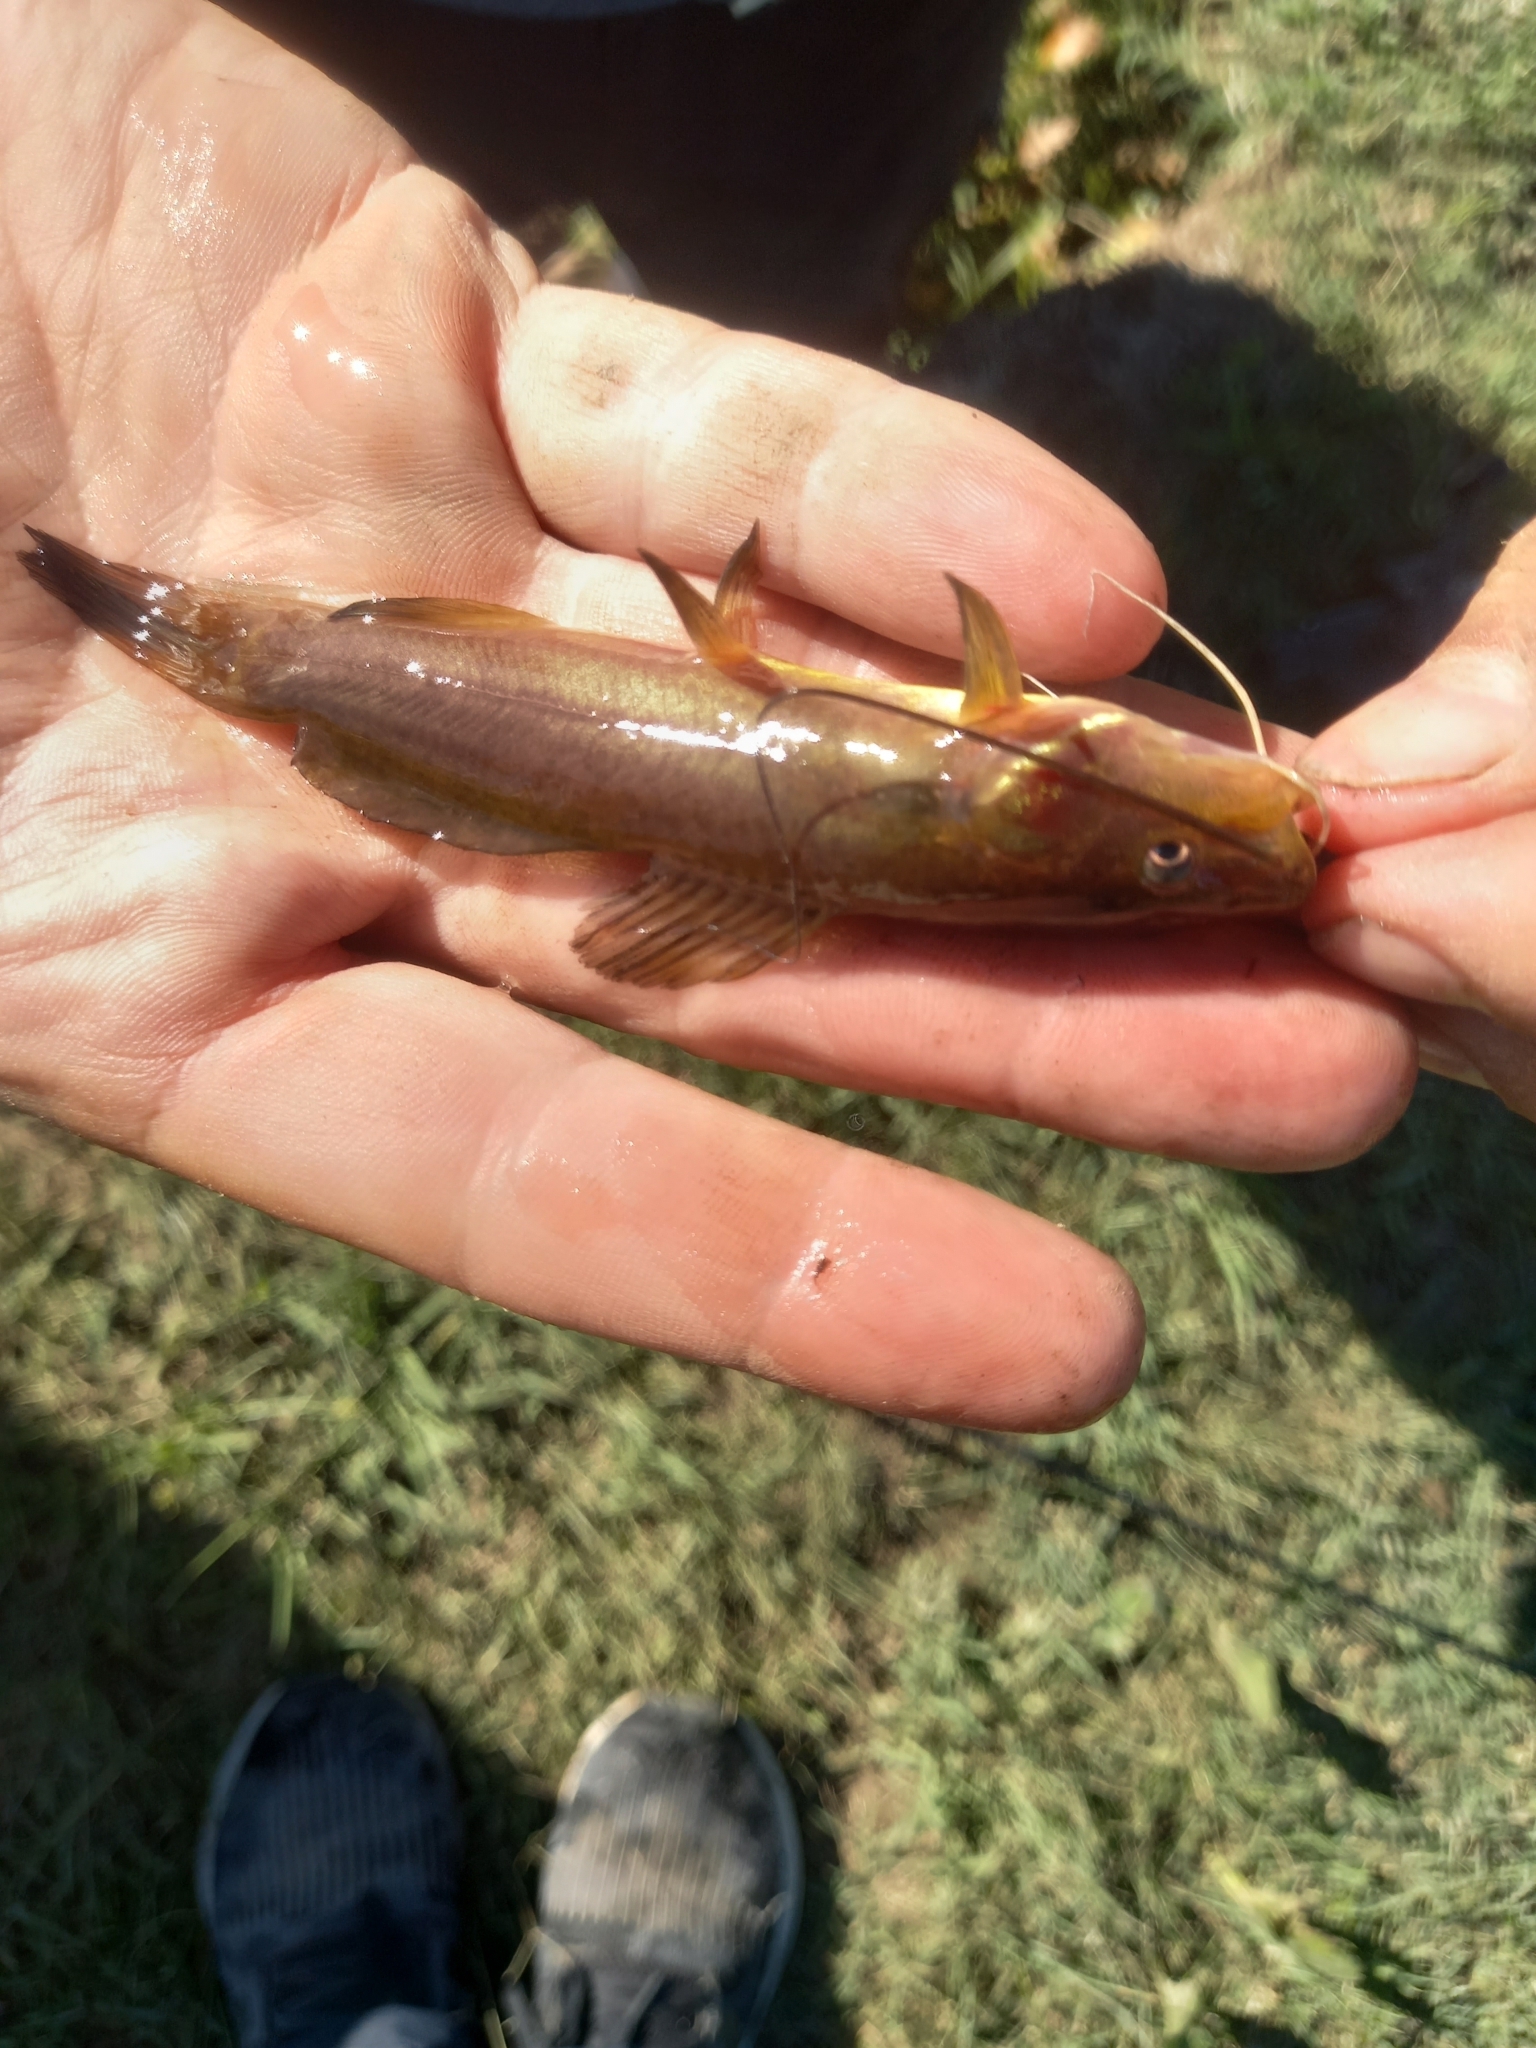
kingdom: Animalia
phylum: Chordata
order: Siluriformes
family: Heptapteridae
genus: Rhamdia
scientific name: Rhamdia quelen
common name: Catfish
